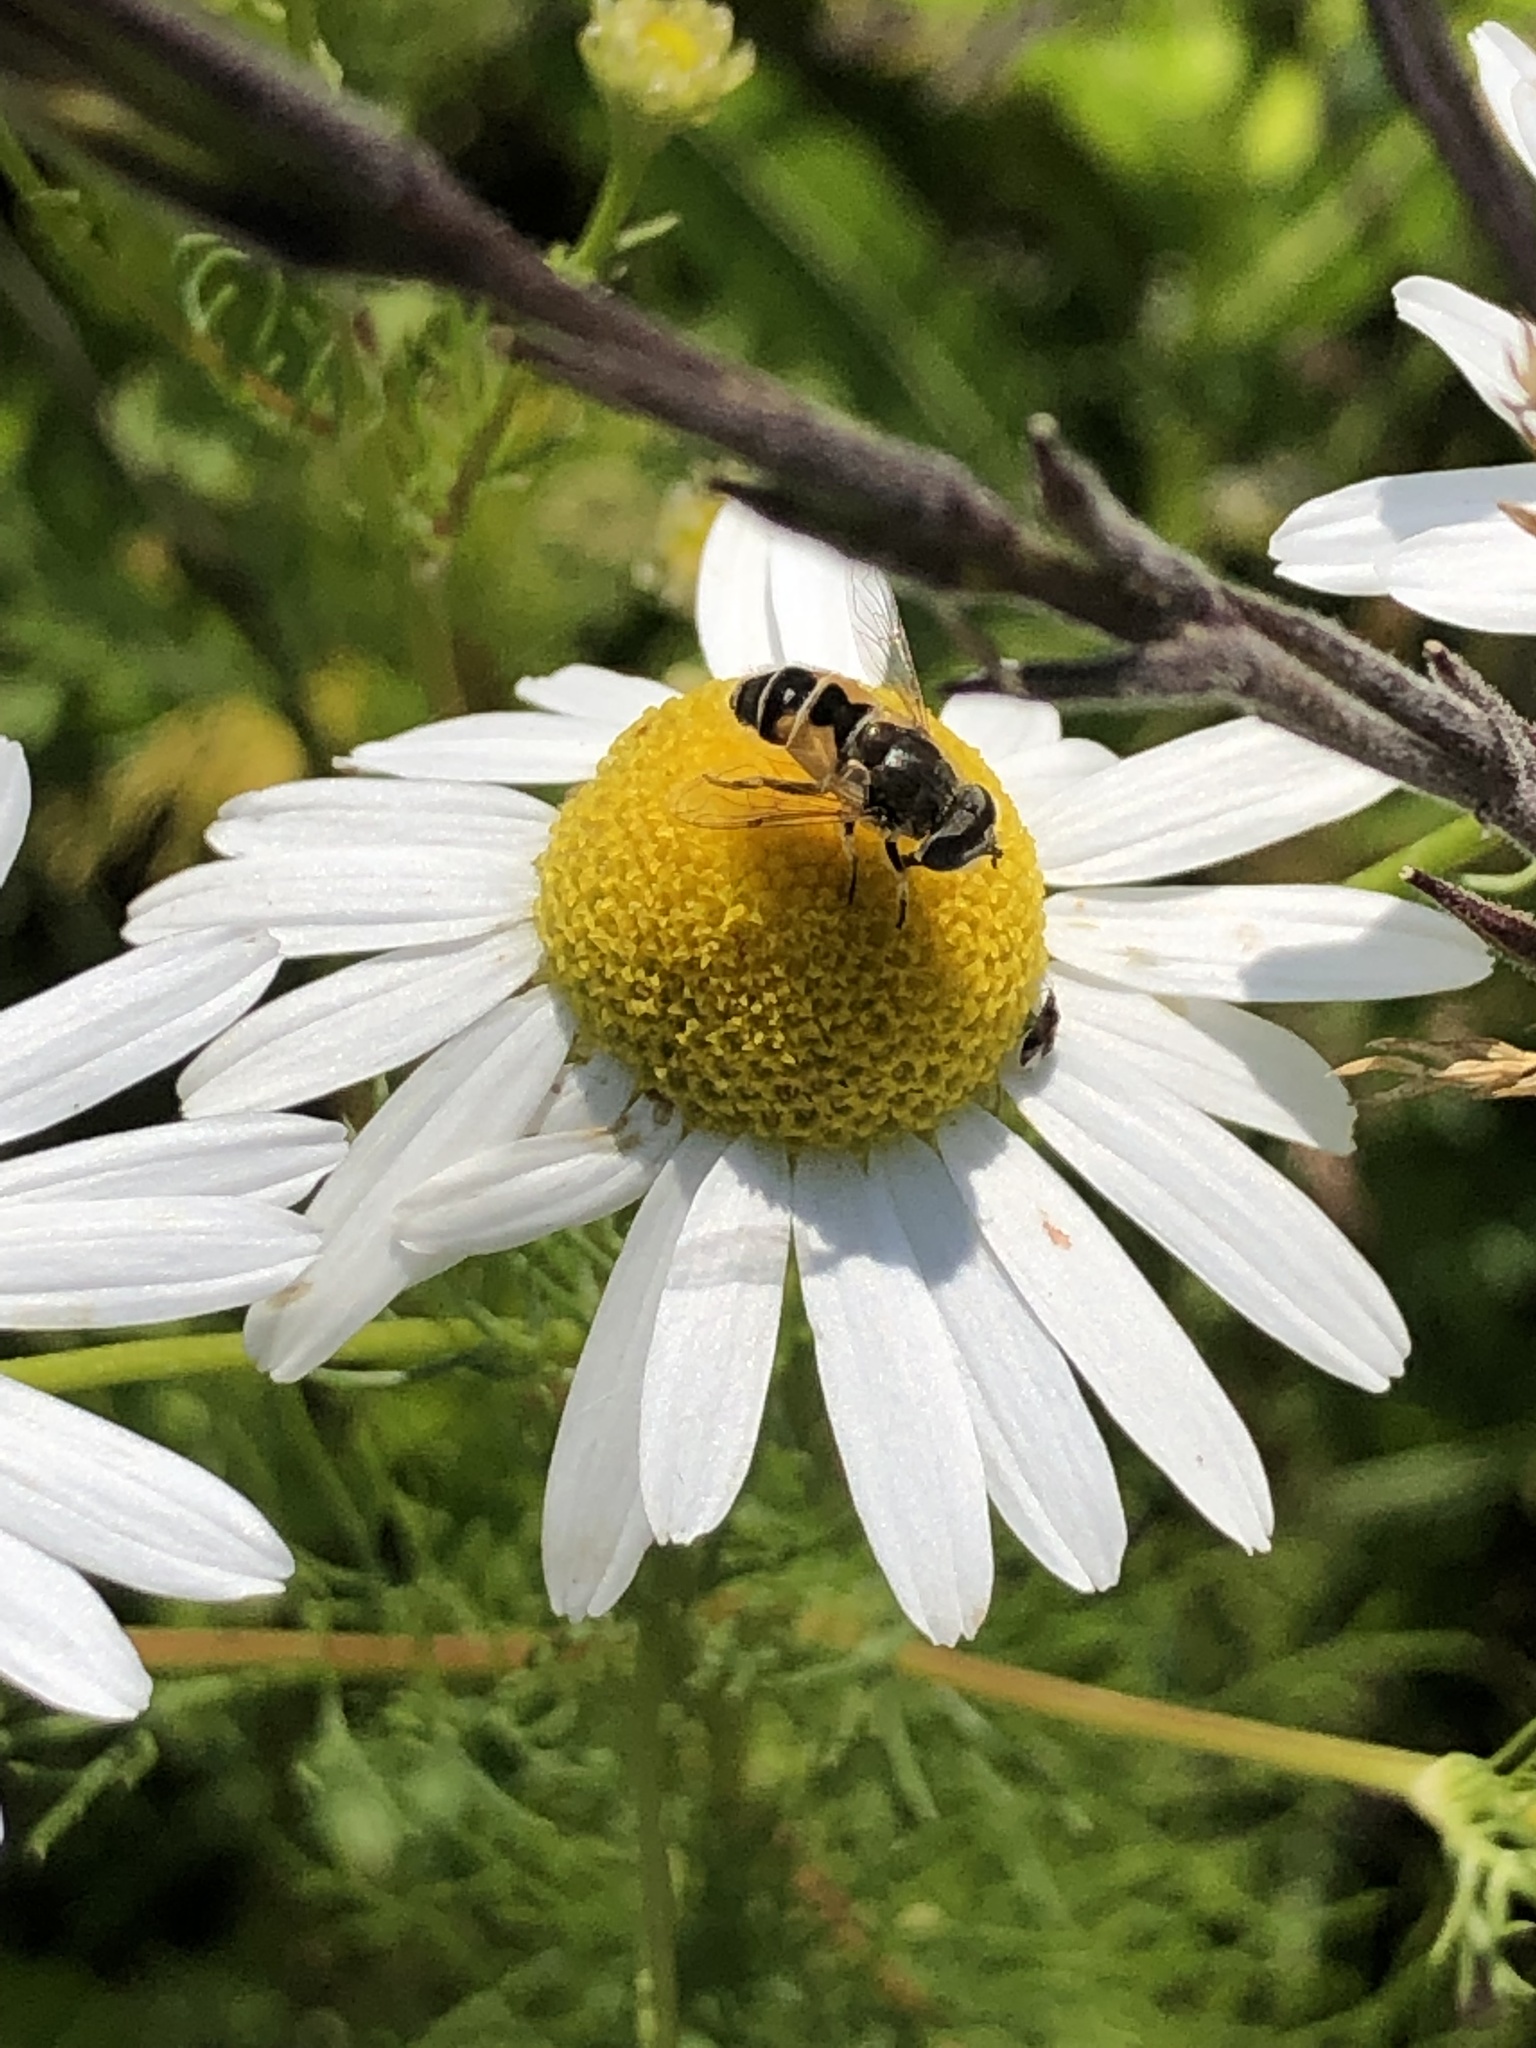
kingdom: Animalia
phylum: Arthropoda
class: Insecta
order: Diptera
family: Syrphidae
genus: Eristalis
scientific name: Eristalis arbustorum
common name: Hover fly
